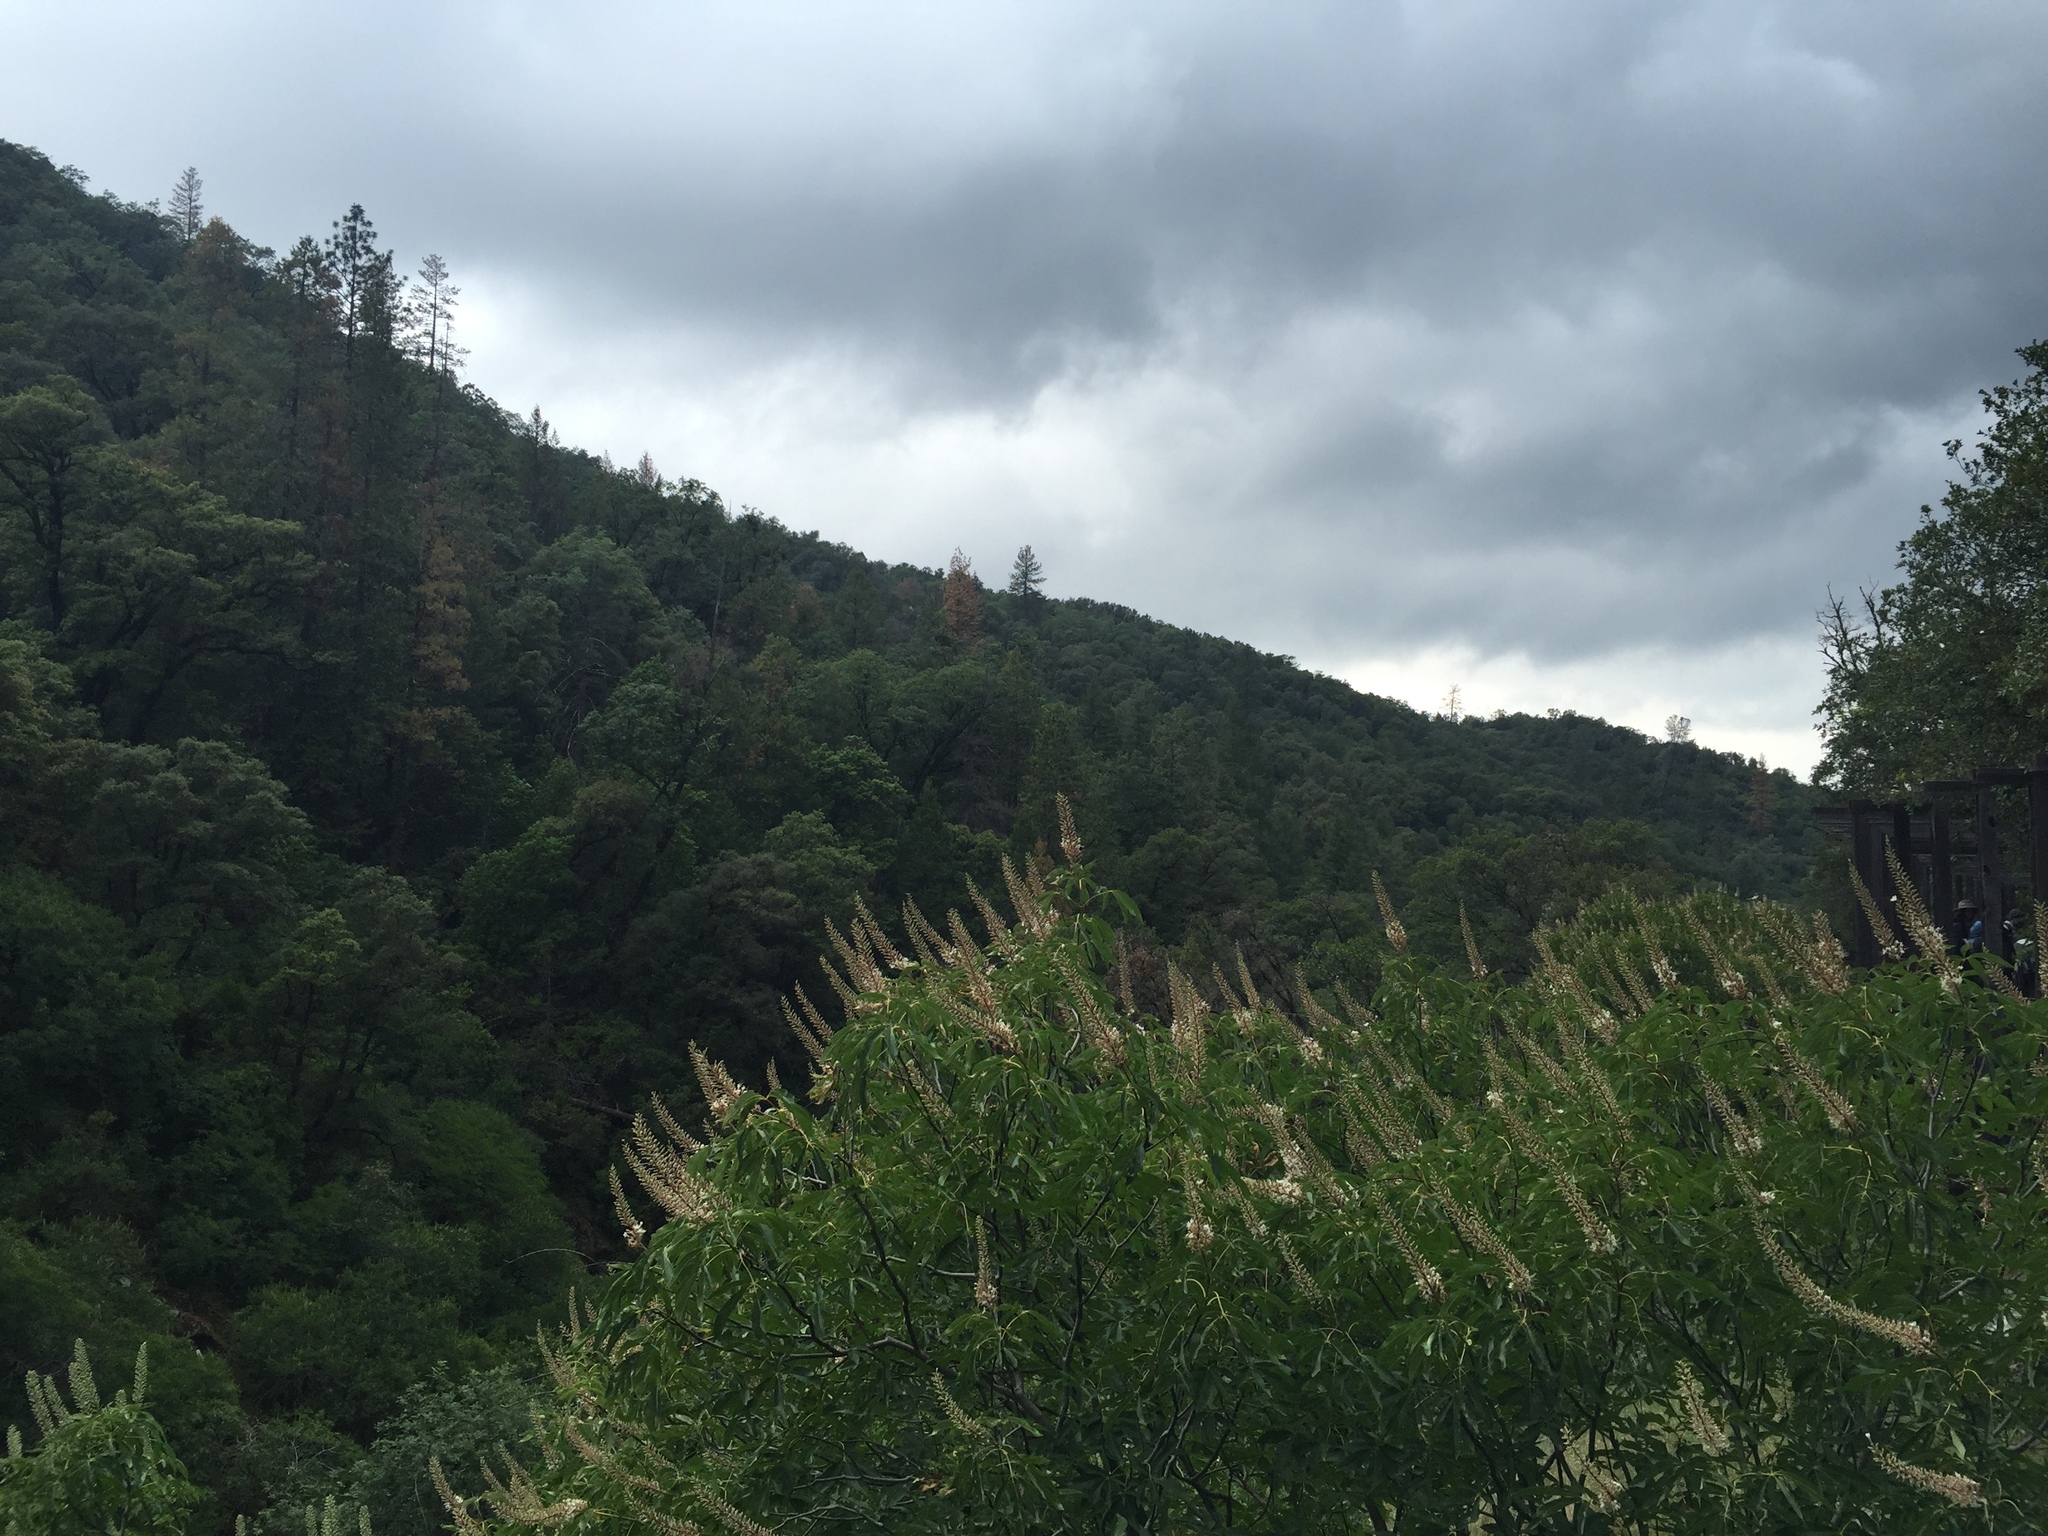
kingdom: Plantae
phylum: Tracheophyta
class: Magnoliopsida
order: Sapindales
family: Sapindaceae
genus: Aesculus
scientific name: Aesculus californica
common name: California buckeye
